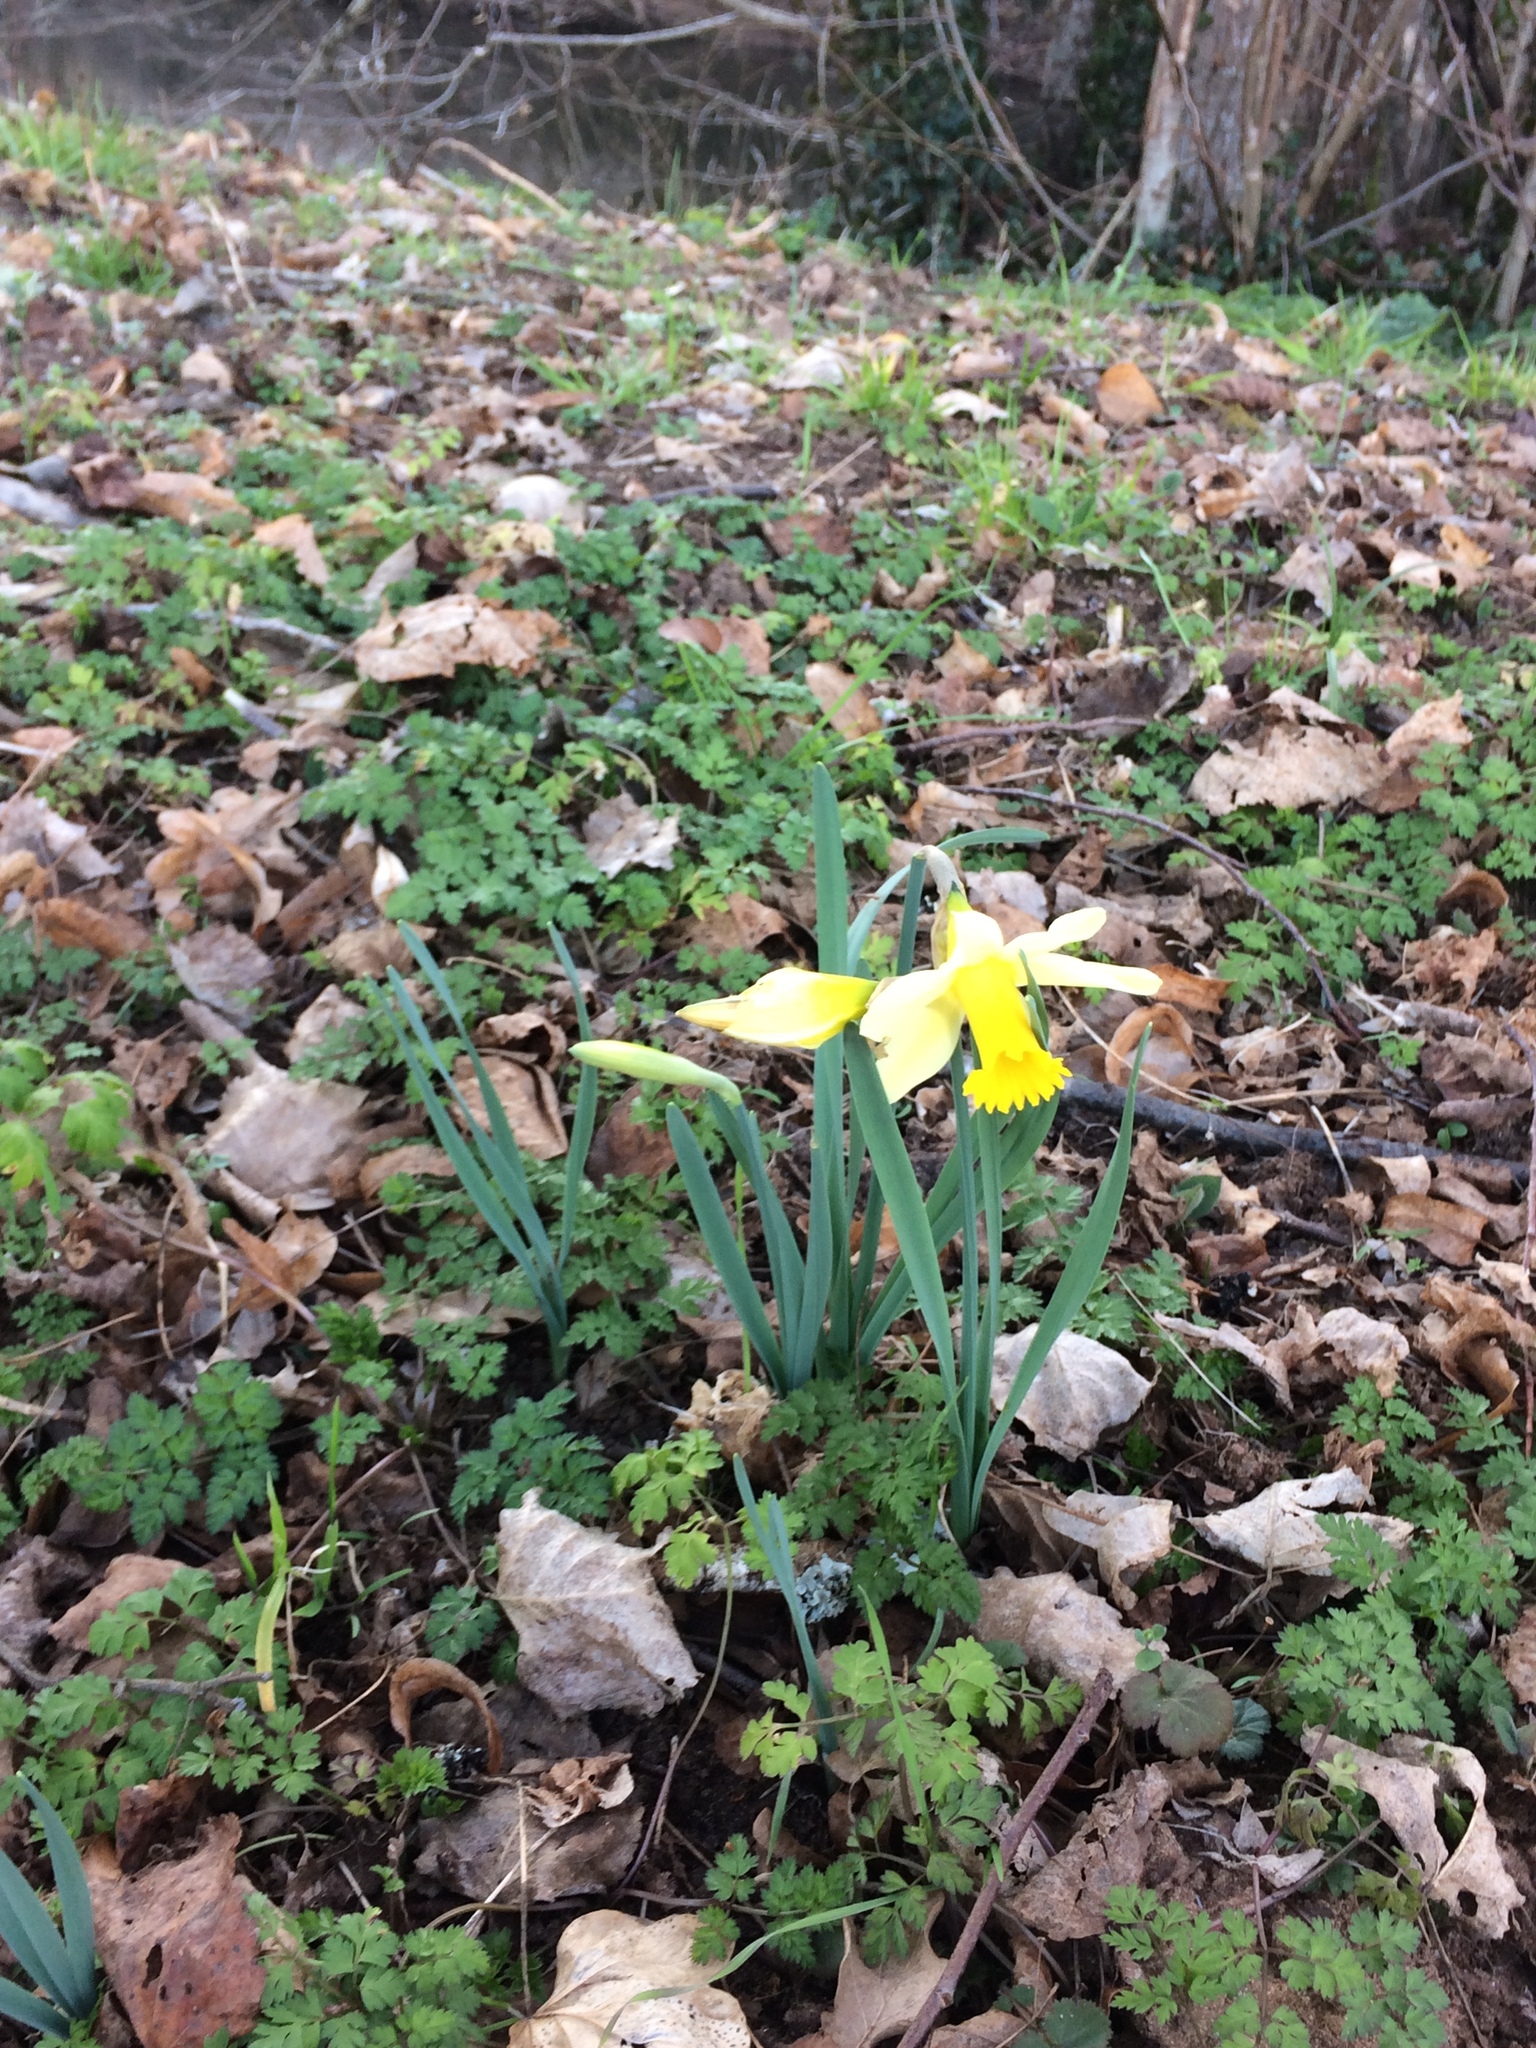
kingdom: Plantae
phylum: Tracheophyta
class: Liliopsida
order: Asparagales
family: Amaryllidaceae
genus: Narcissus
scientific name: Narcissus pseudonarcissus
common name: Daffodil
